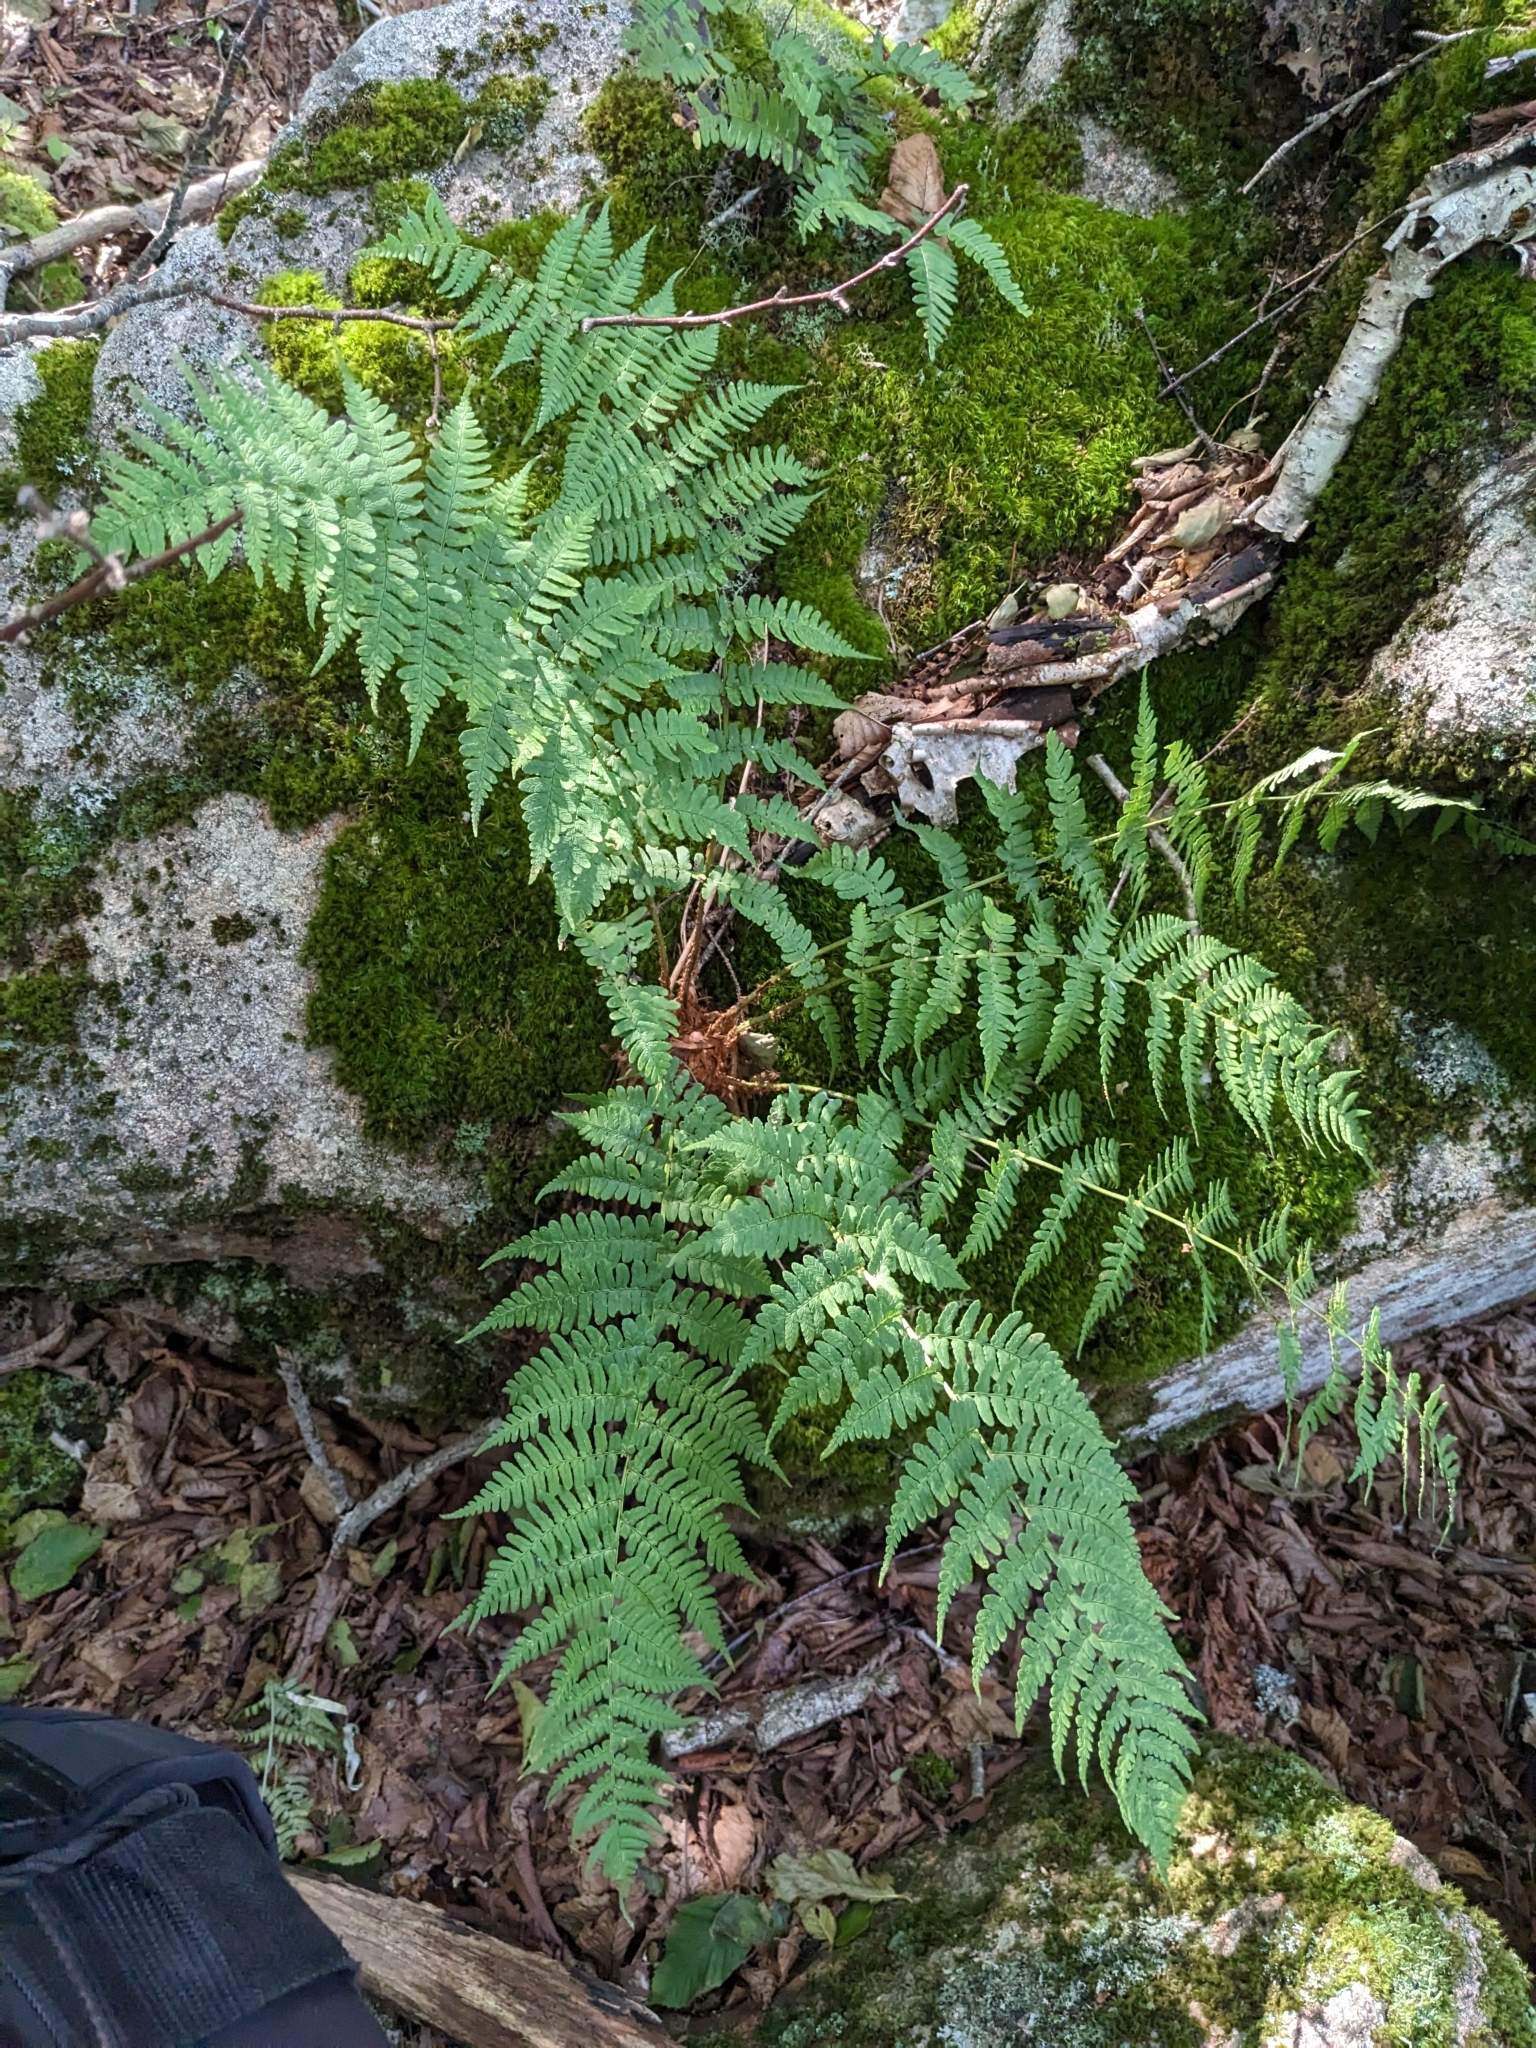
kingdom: Plantae
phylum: Tracheophyta
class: Polypodiopsida
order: Polypodiales
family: Dryopteridaceae
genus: Dryopteris
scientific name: Dryopteris marginalis
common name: Marginal wood fern
